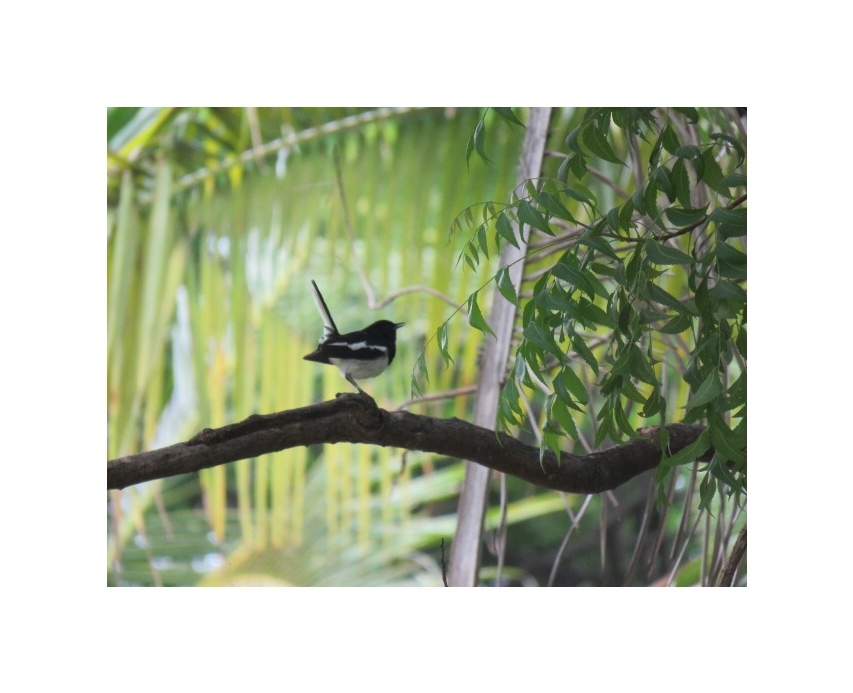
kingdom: Animalia
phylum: Chordata
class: Aves
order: Passeriformes
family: Muscicapidae
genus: Copsychus
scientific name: Copsychus saularis
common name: Oriental magpie-robin
